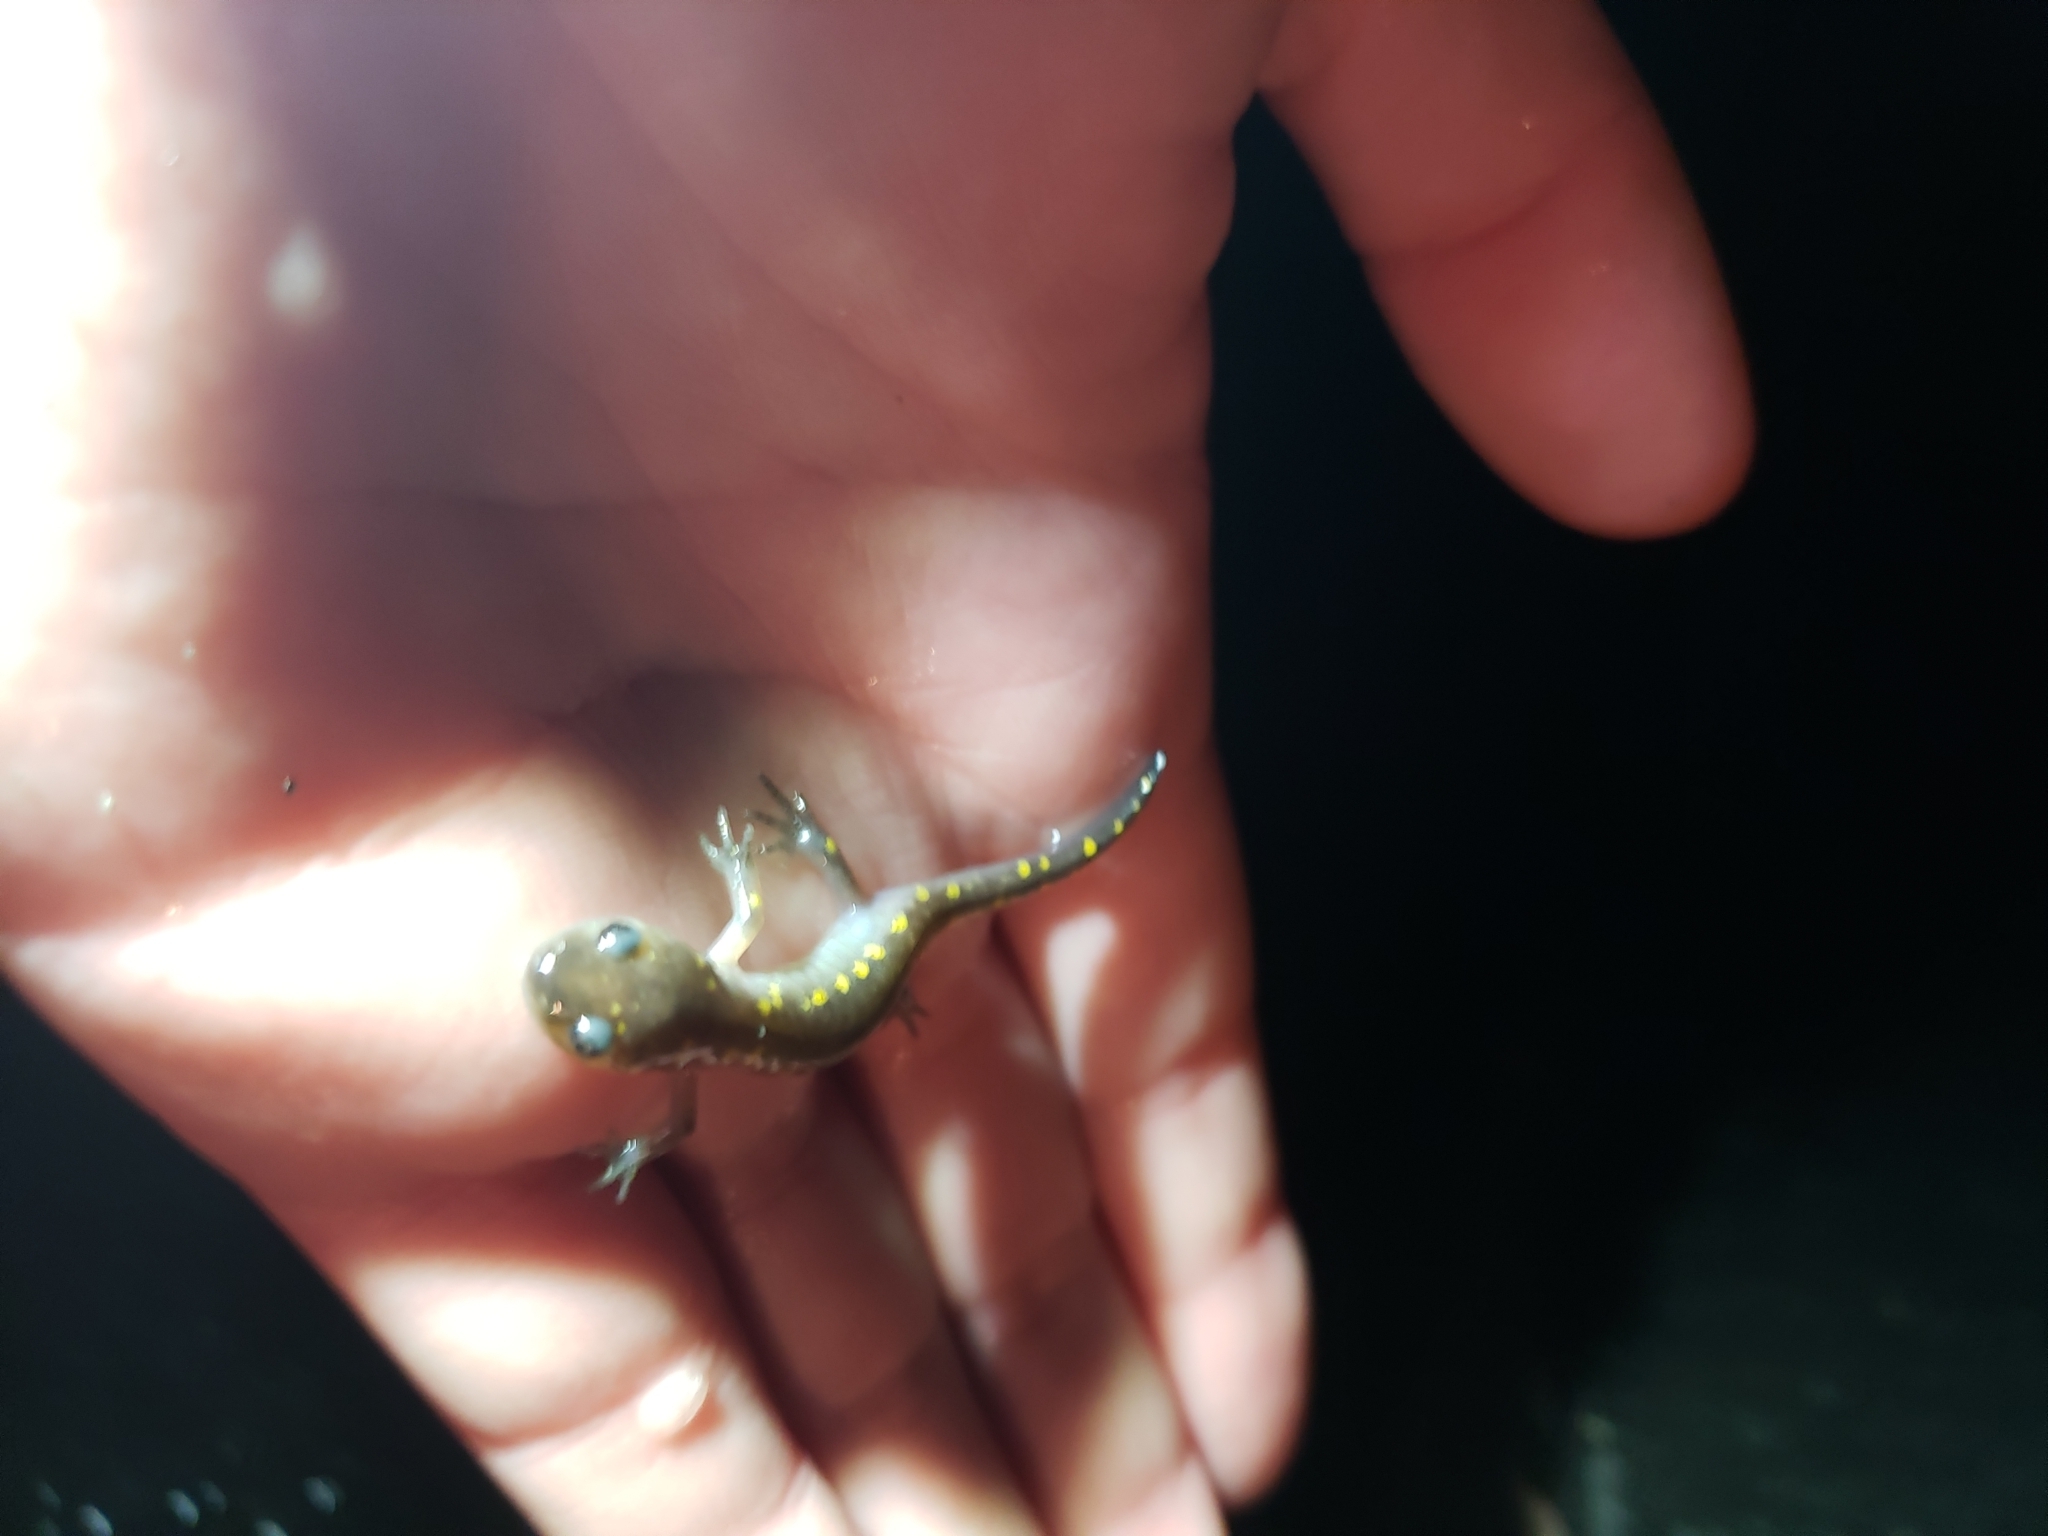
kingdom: Animalia
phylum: Chordata
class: Amphibia
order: Caudata
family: Ambystomatidae
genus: Ambystoma
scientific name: Ambystoma maculatum
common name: Spotted salamander
